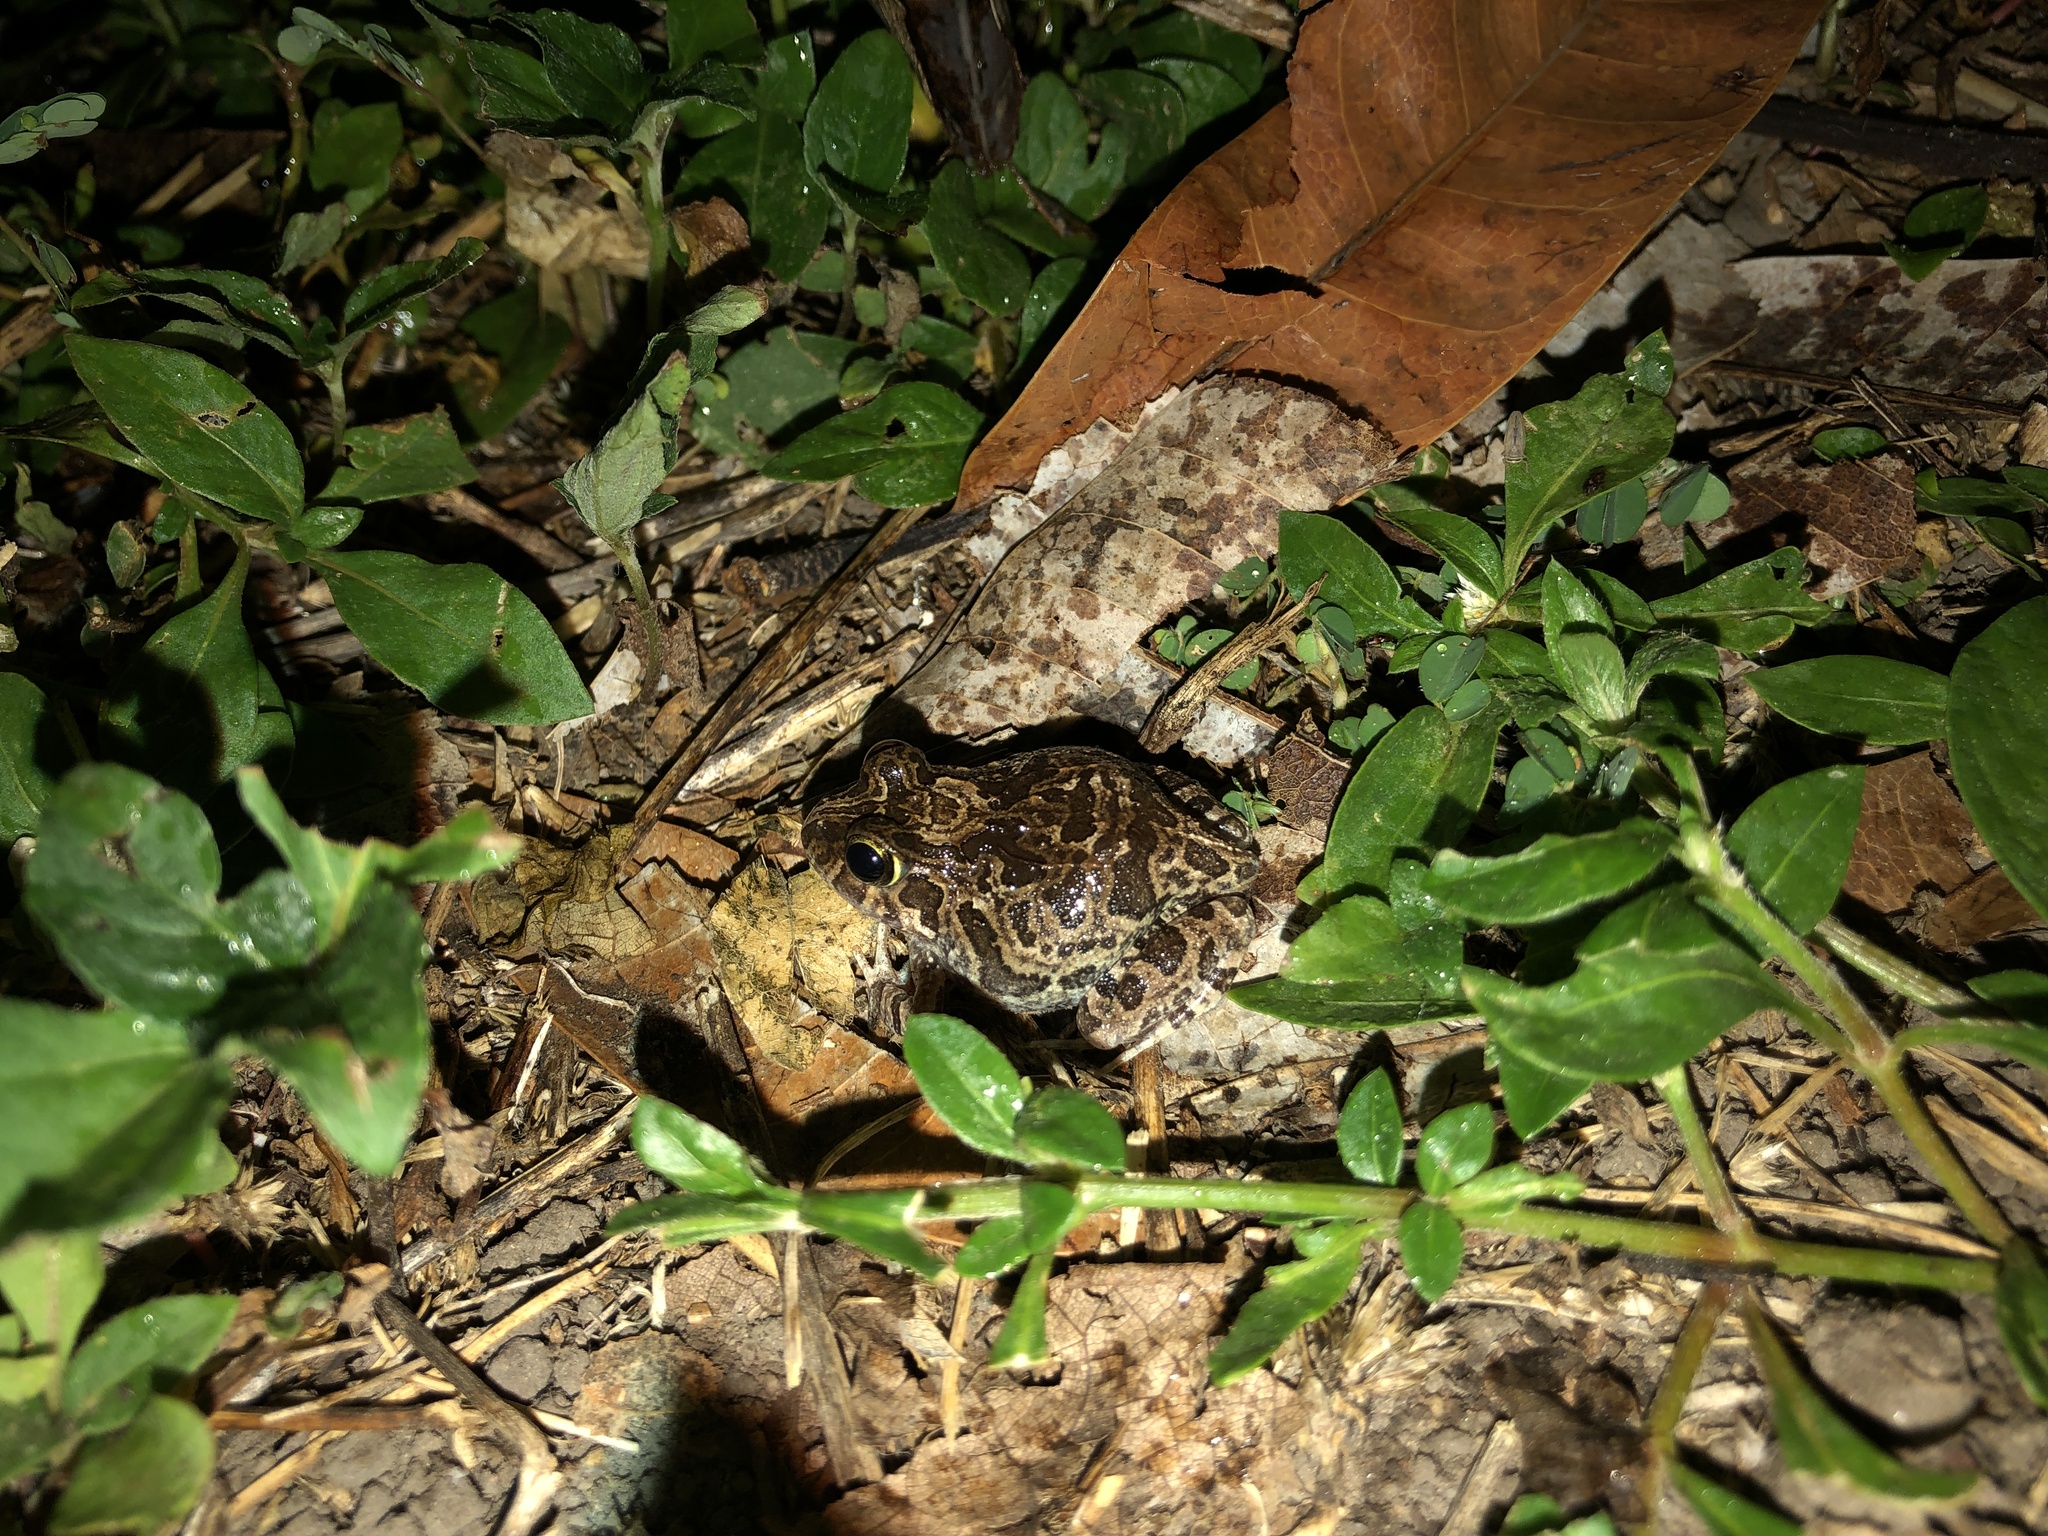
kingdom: Animalia
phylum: Chordata
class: Amphibia
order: Anura
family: Limnodynastidae
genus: Platyplectrum
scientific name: Platyplectrum ornatum
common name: Ornate burrowing frog
